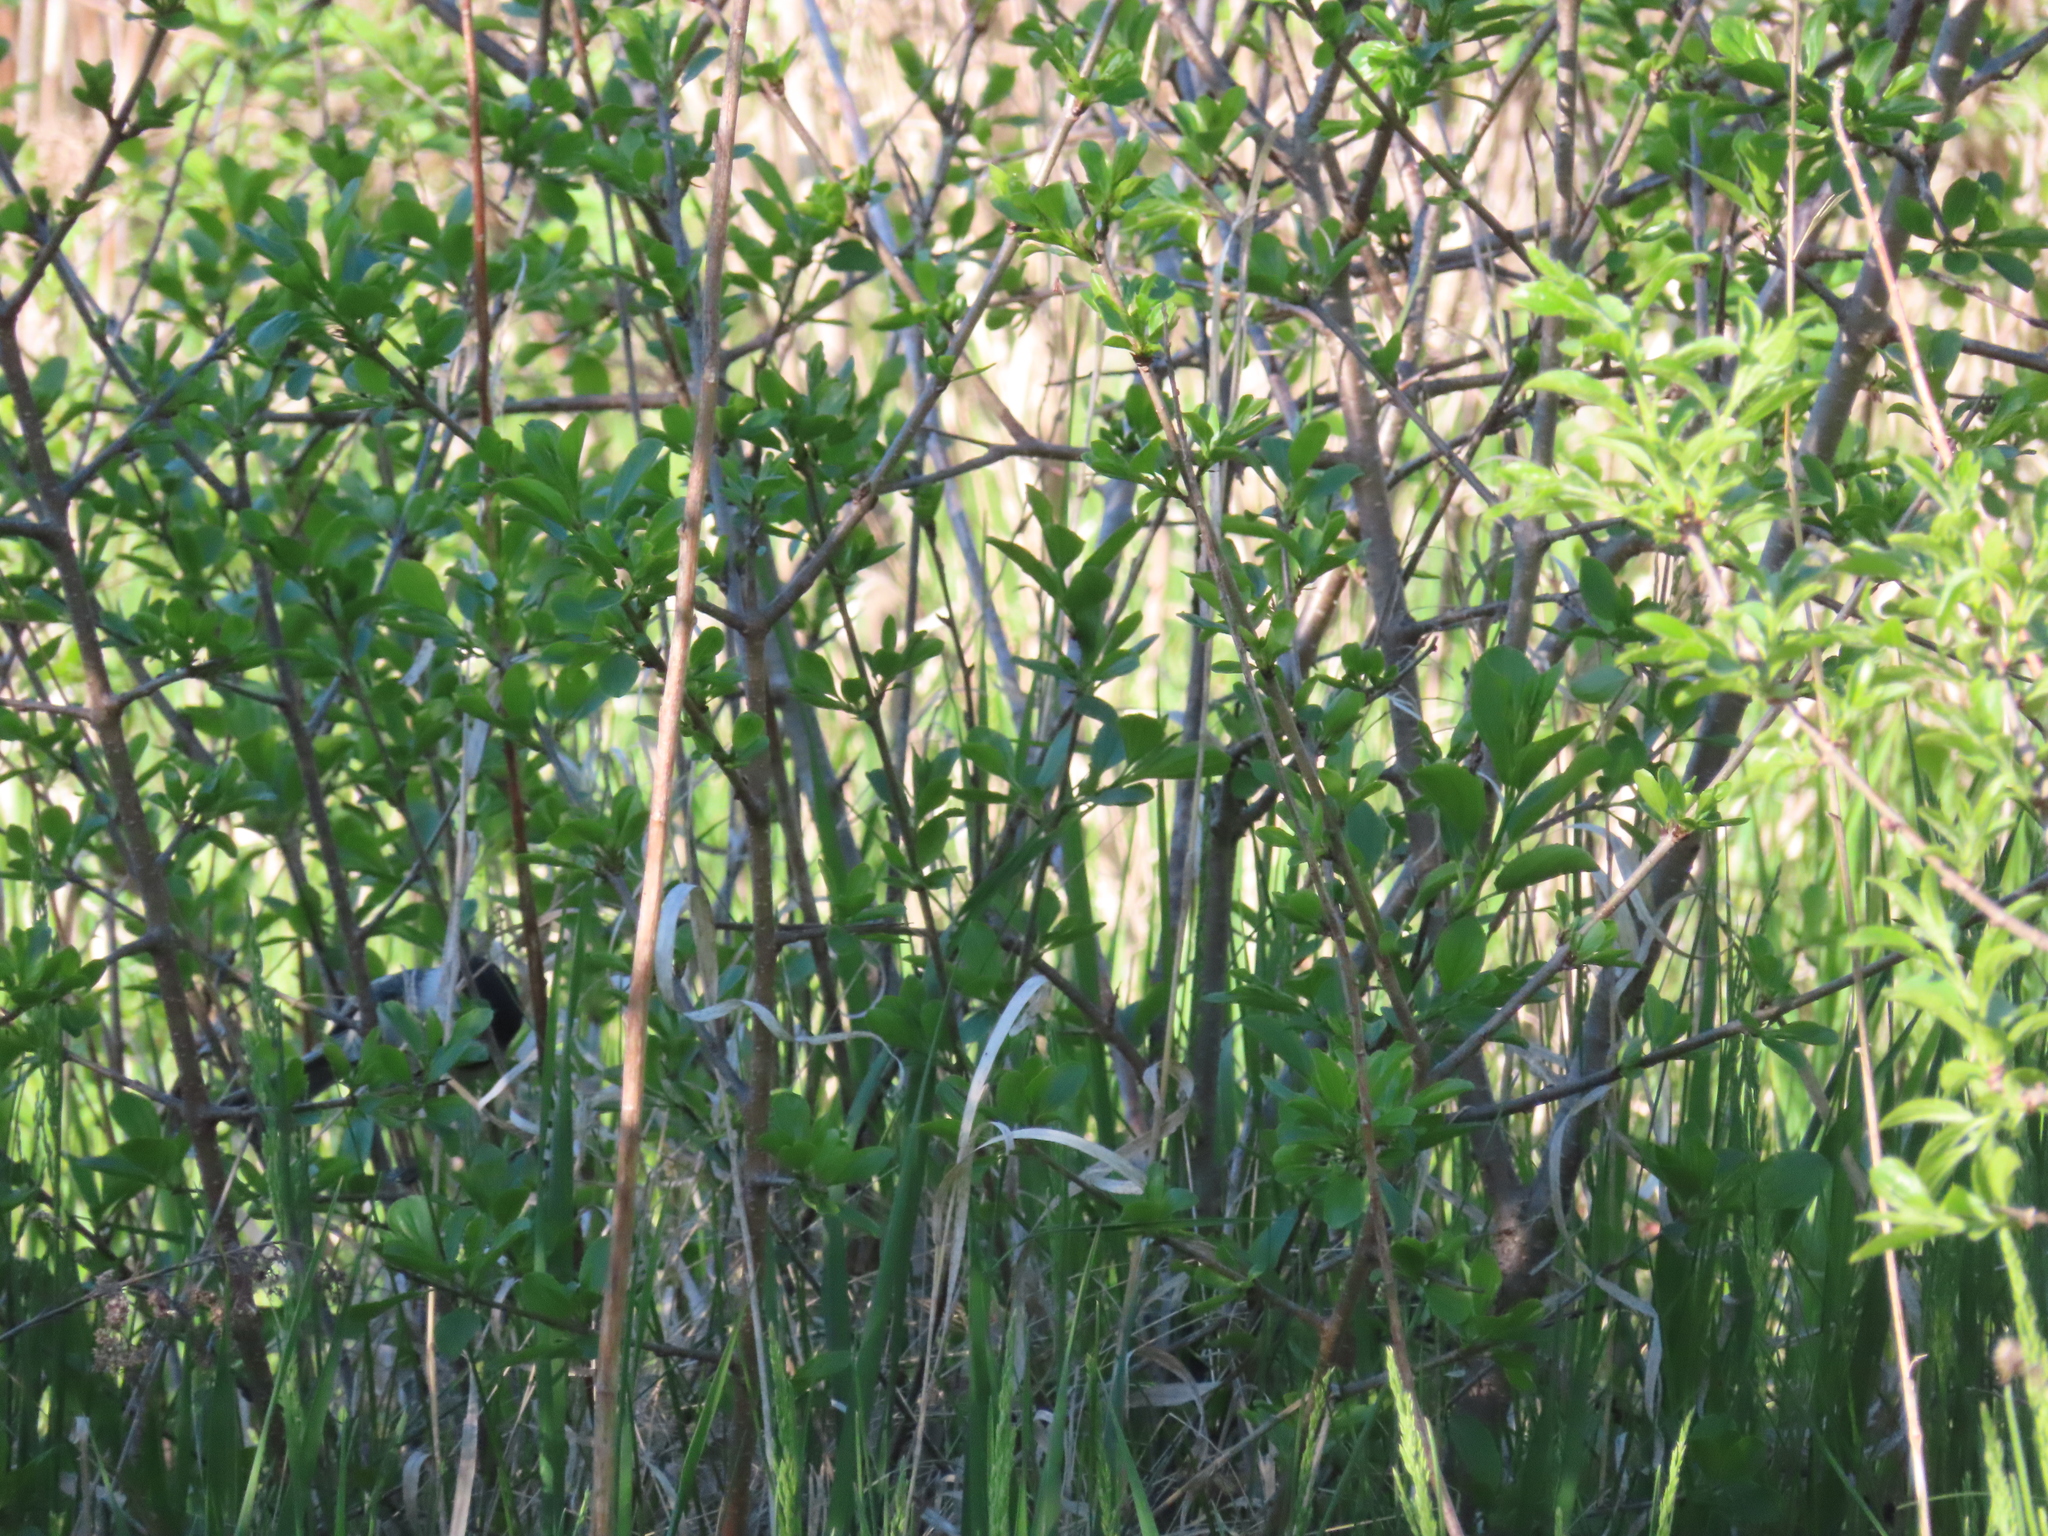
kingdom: Animalia
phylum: Chordata
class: Aves
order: Passeriformes
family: Paridae
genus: Poecile
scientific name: Poecile atricapillus
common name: Black-capped chickadee
